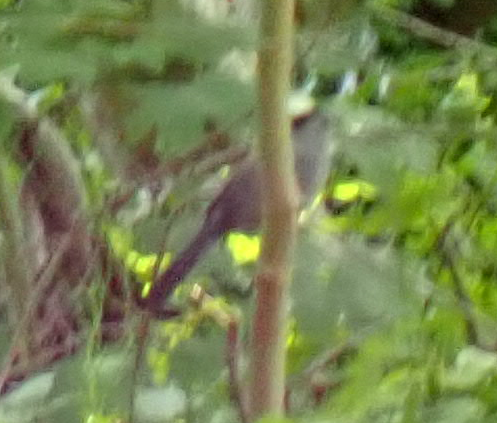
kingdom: Animalia
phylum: Chordata
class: Aves
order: Passeriformes
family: Mimidae
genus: Dumetella
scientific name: Dumetella carolinensis
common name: Gray catbird
